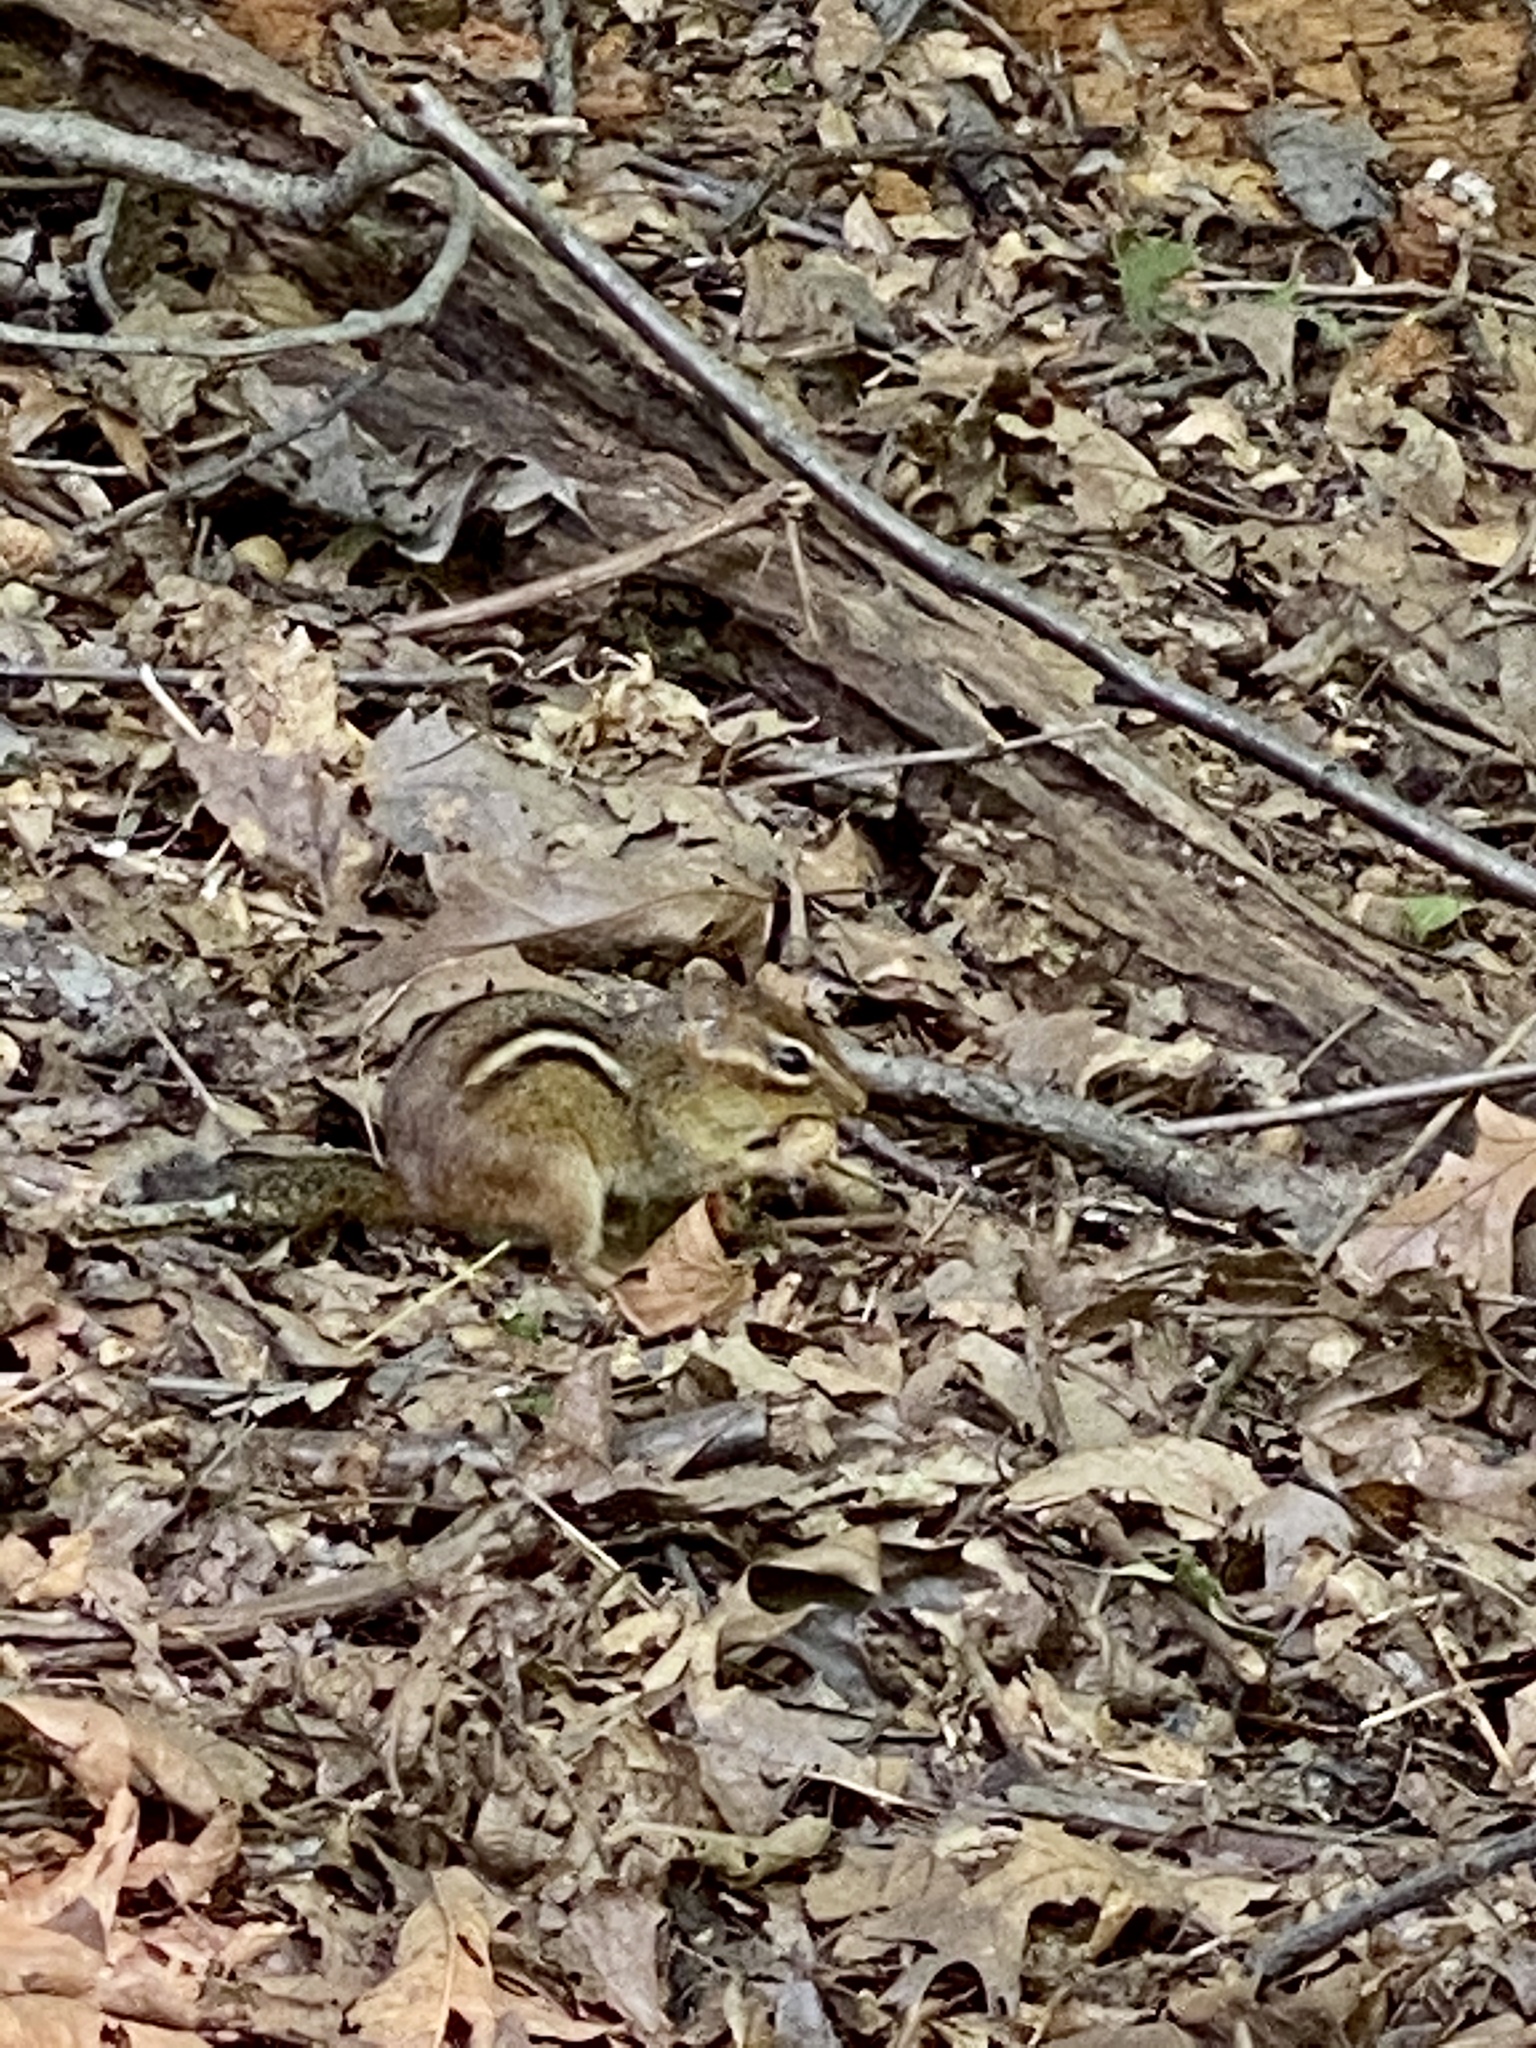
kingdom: Animalia
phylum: Chordata
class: Mammalia
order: Rodentia
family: Sciuridae
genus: Tamias
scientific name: Tamias striatus
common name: Eastern chipmunk
